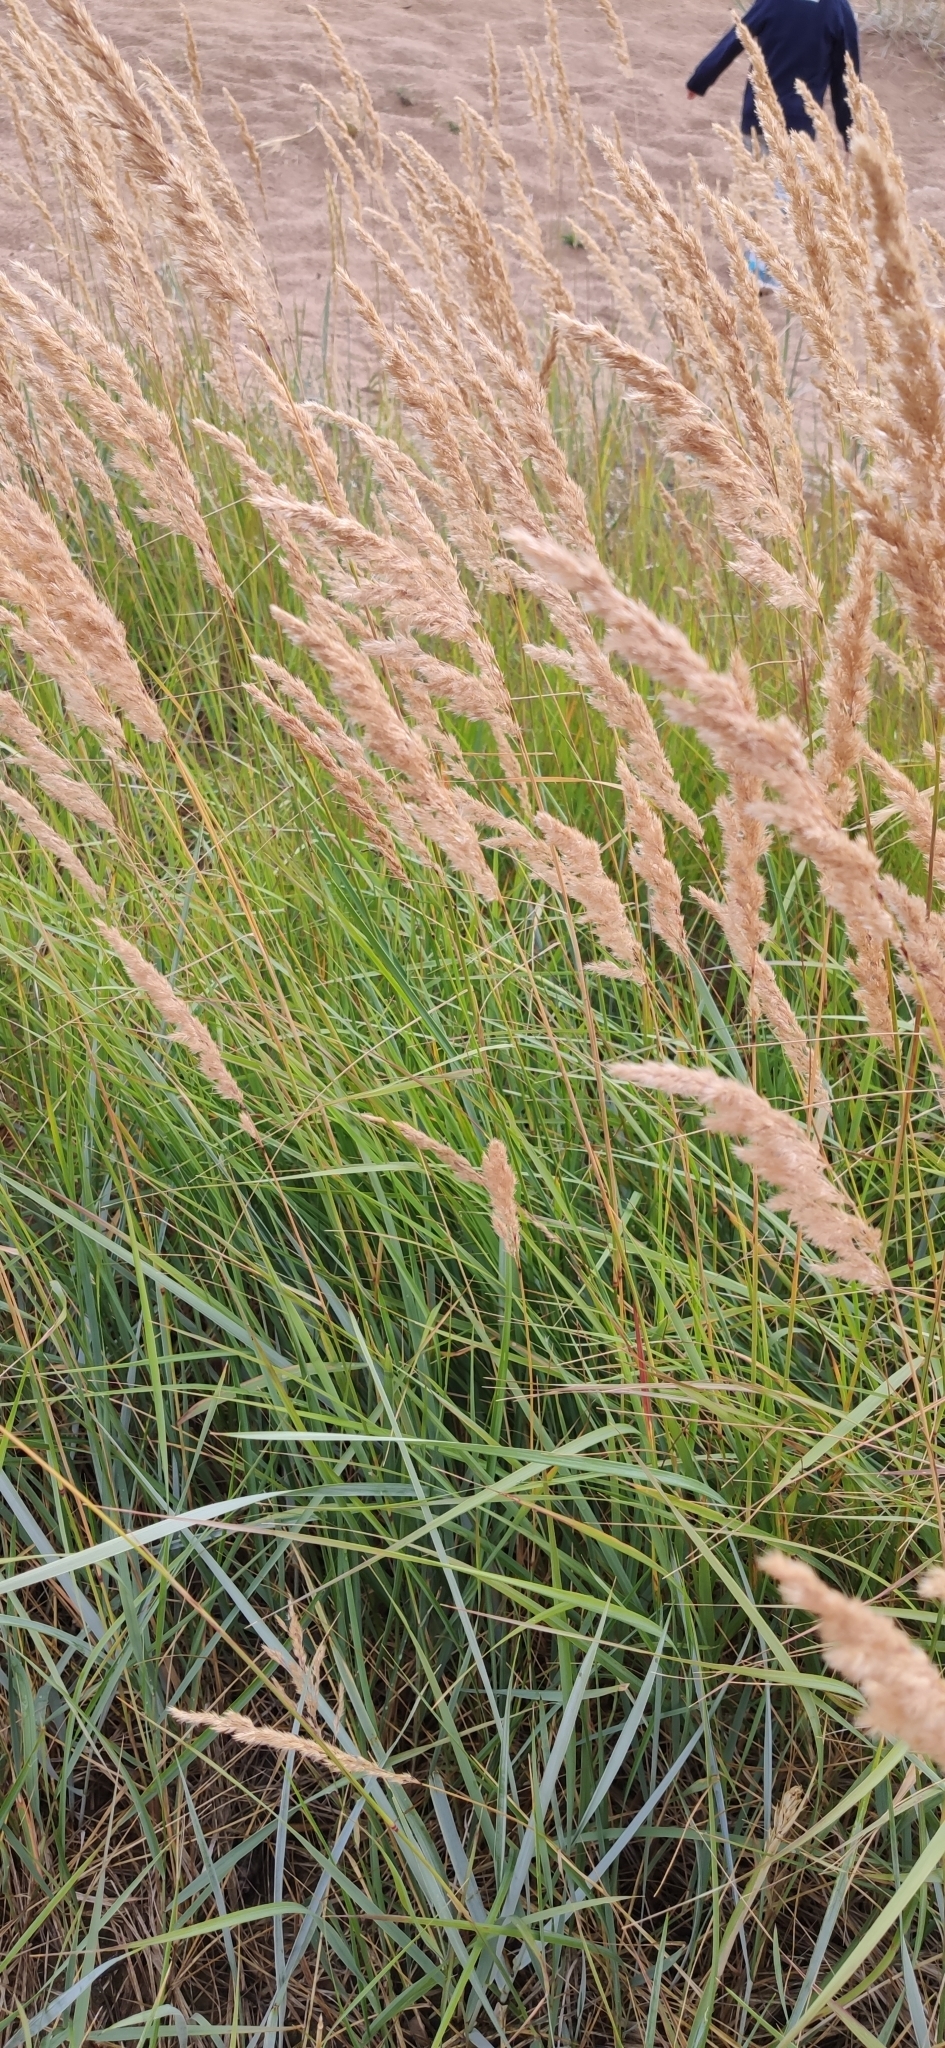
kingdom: Plantae
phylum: Tracheophyta
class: Liliopsida
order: Poales
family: Poaceae
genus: Calamagrostis
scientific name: Calamagrostis epigejos
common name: Wood small-reed
